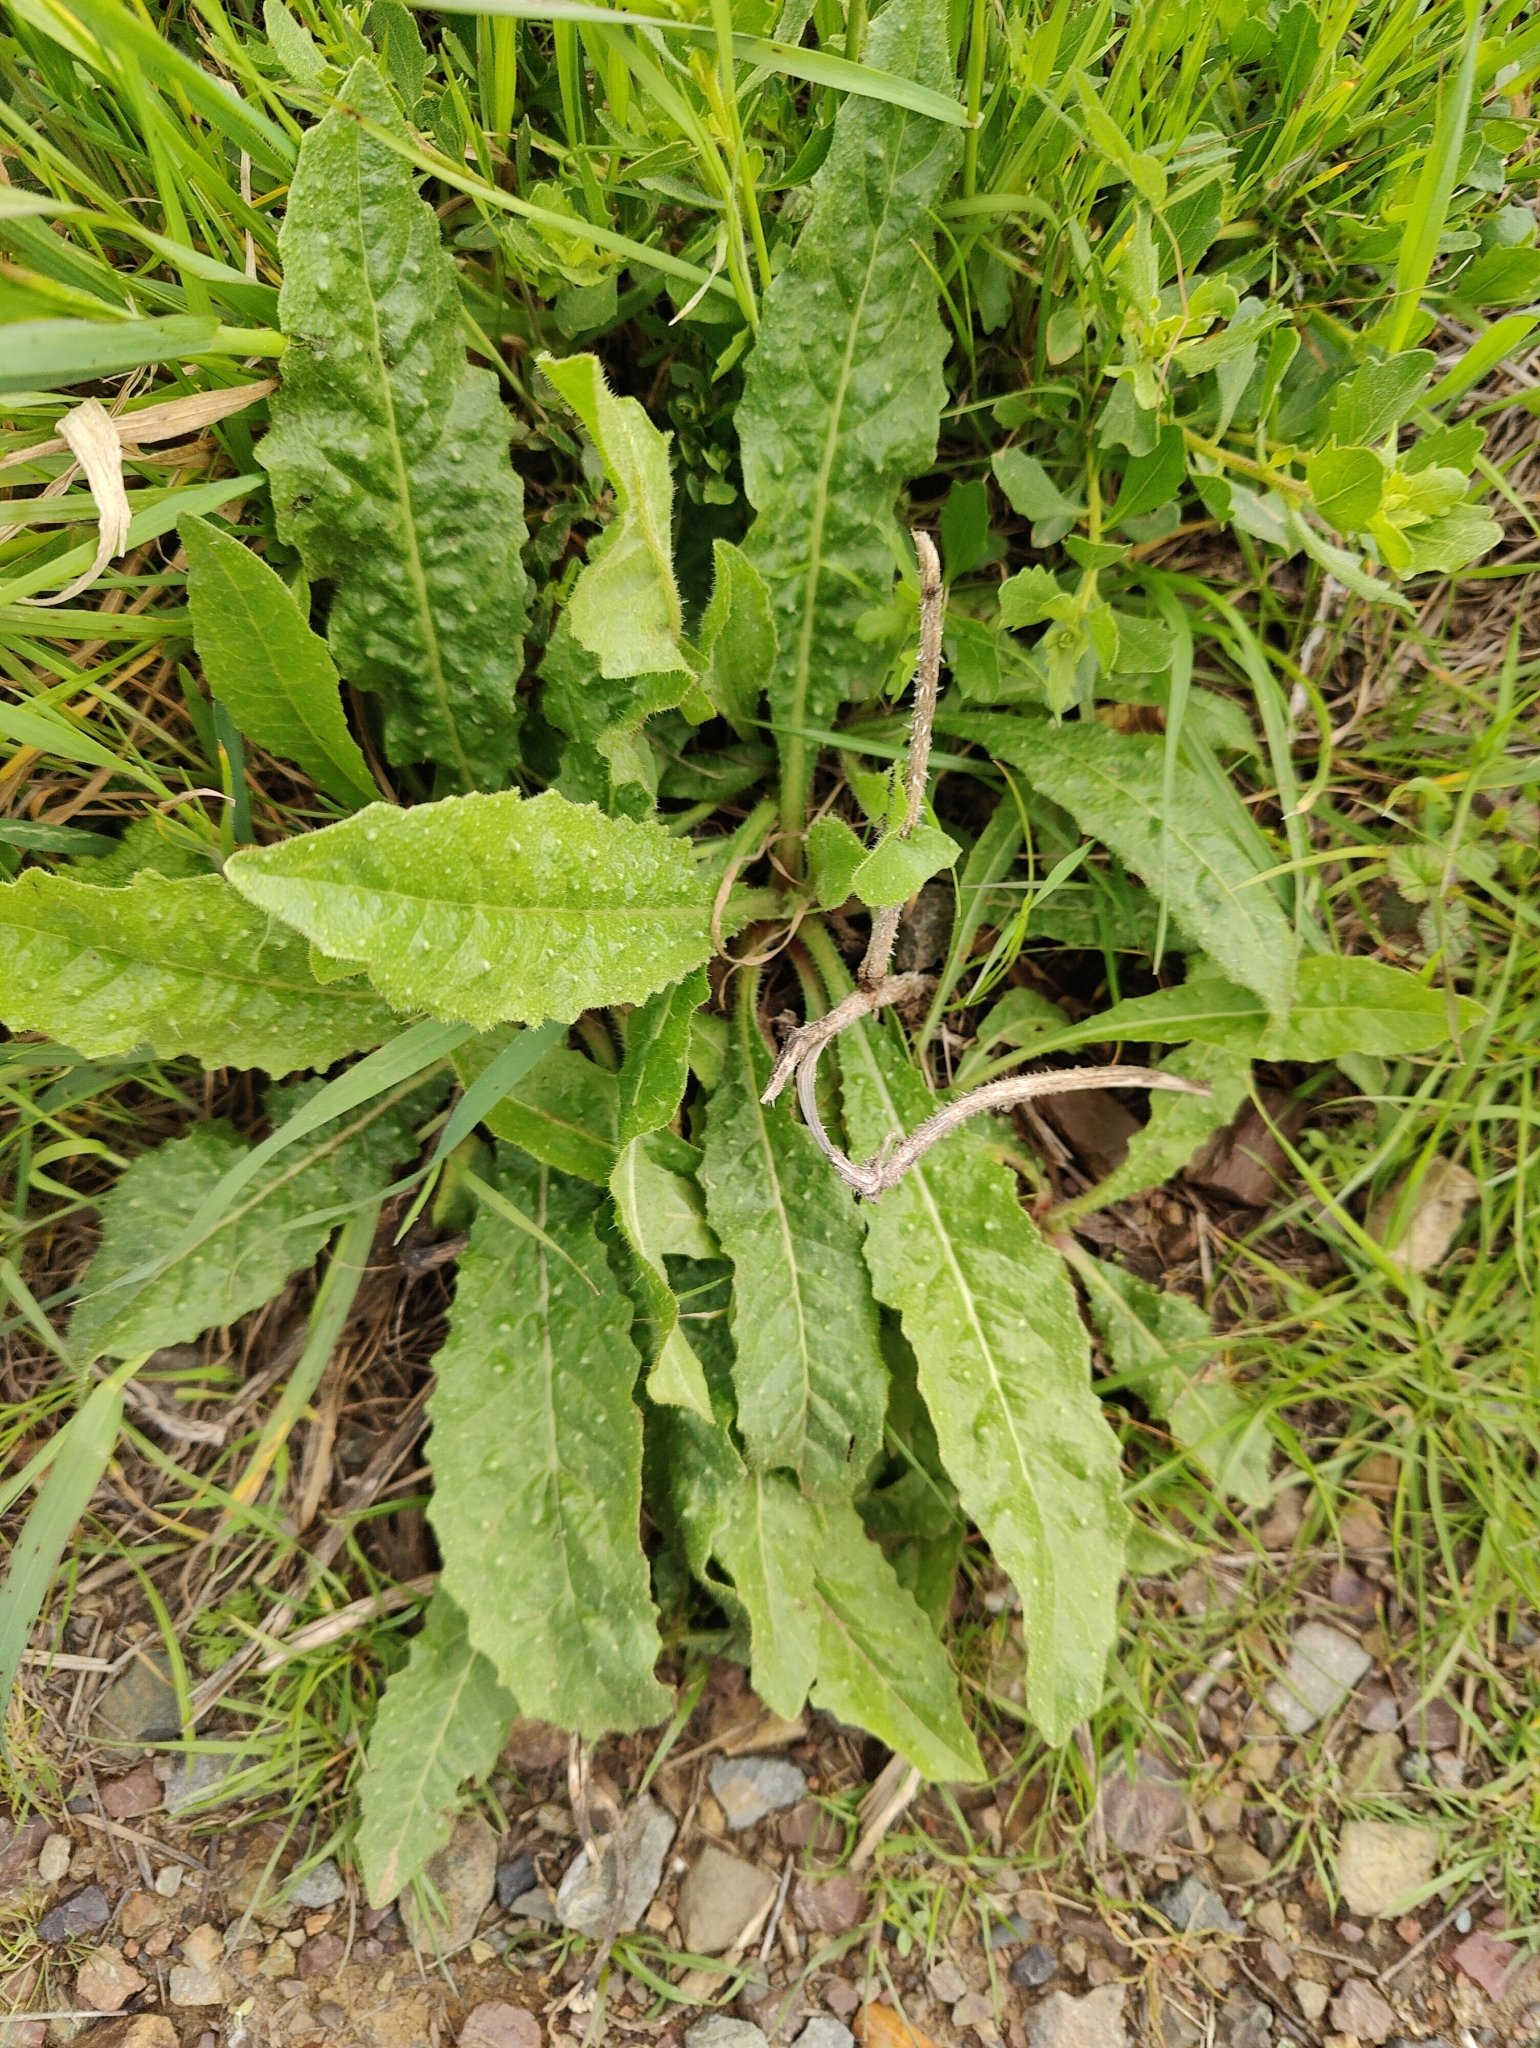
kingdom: Plantae
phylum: Tracheophyta
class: Magnoliopsida
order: Asterales
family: Asteraceae
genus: Helminthotheca
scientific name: Helminthotheca echioides
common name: Ox-tongue
